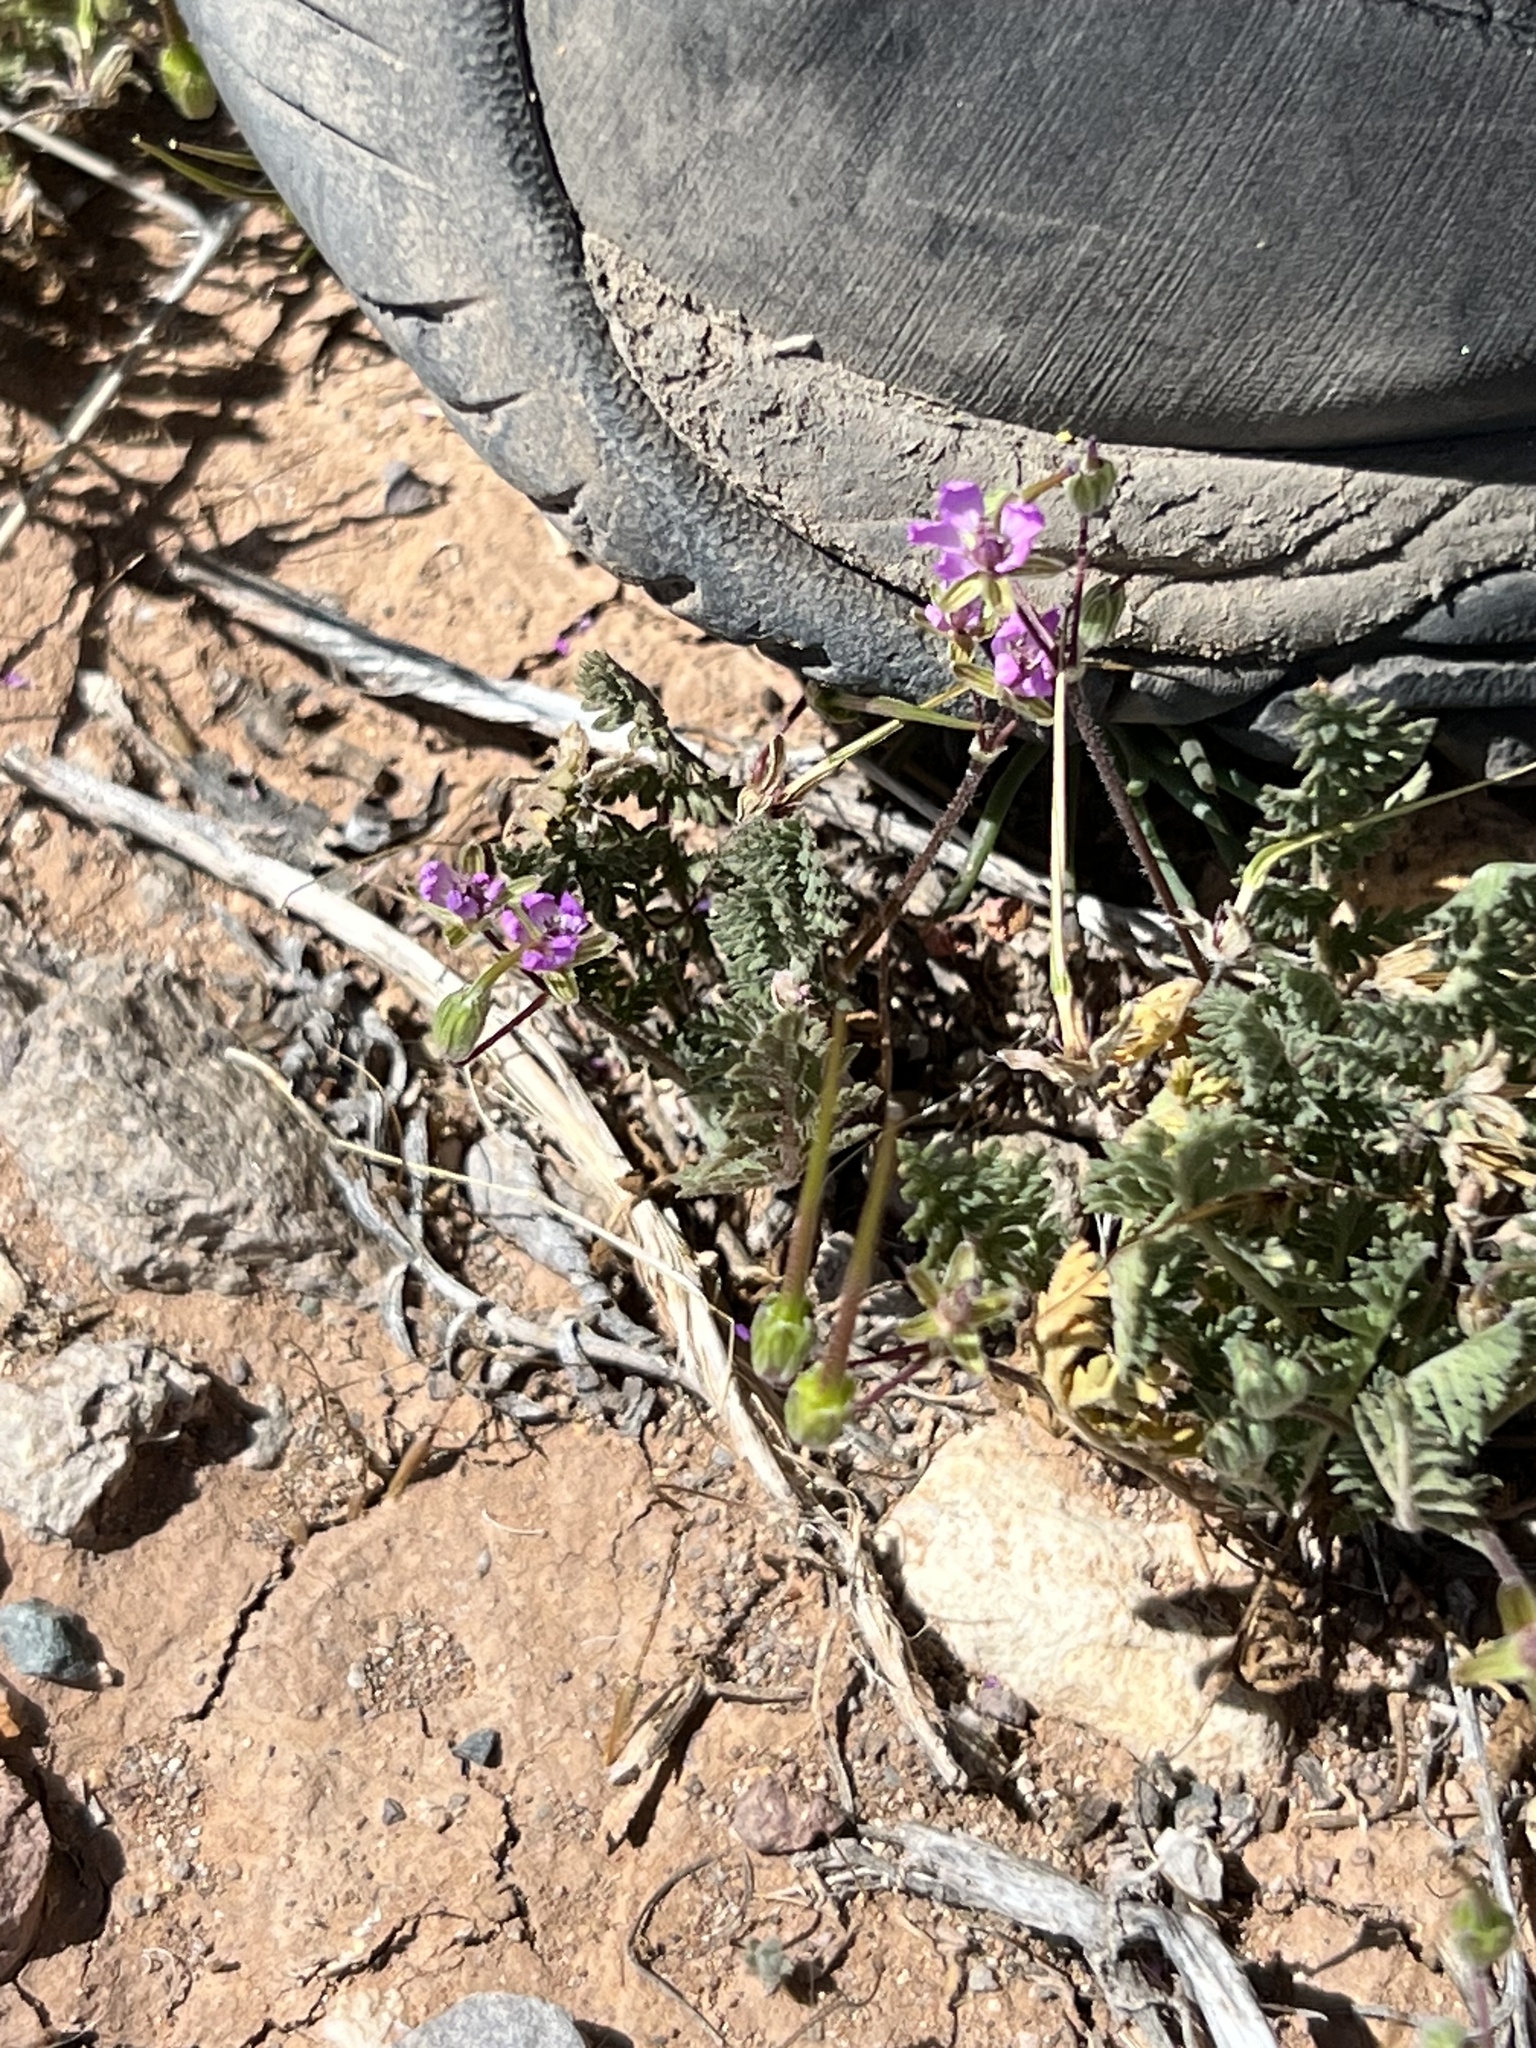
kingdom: Plantae
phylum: Tracheophyta
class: Magnoliopsida
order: Geraniales
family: Geraniaceae
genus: Erodium
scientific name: Erodium cicutarium
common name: Common stork's-bill
